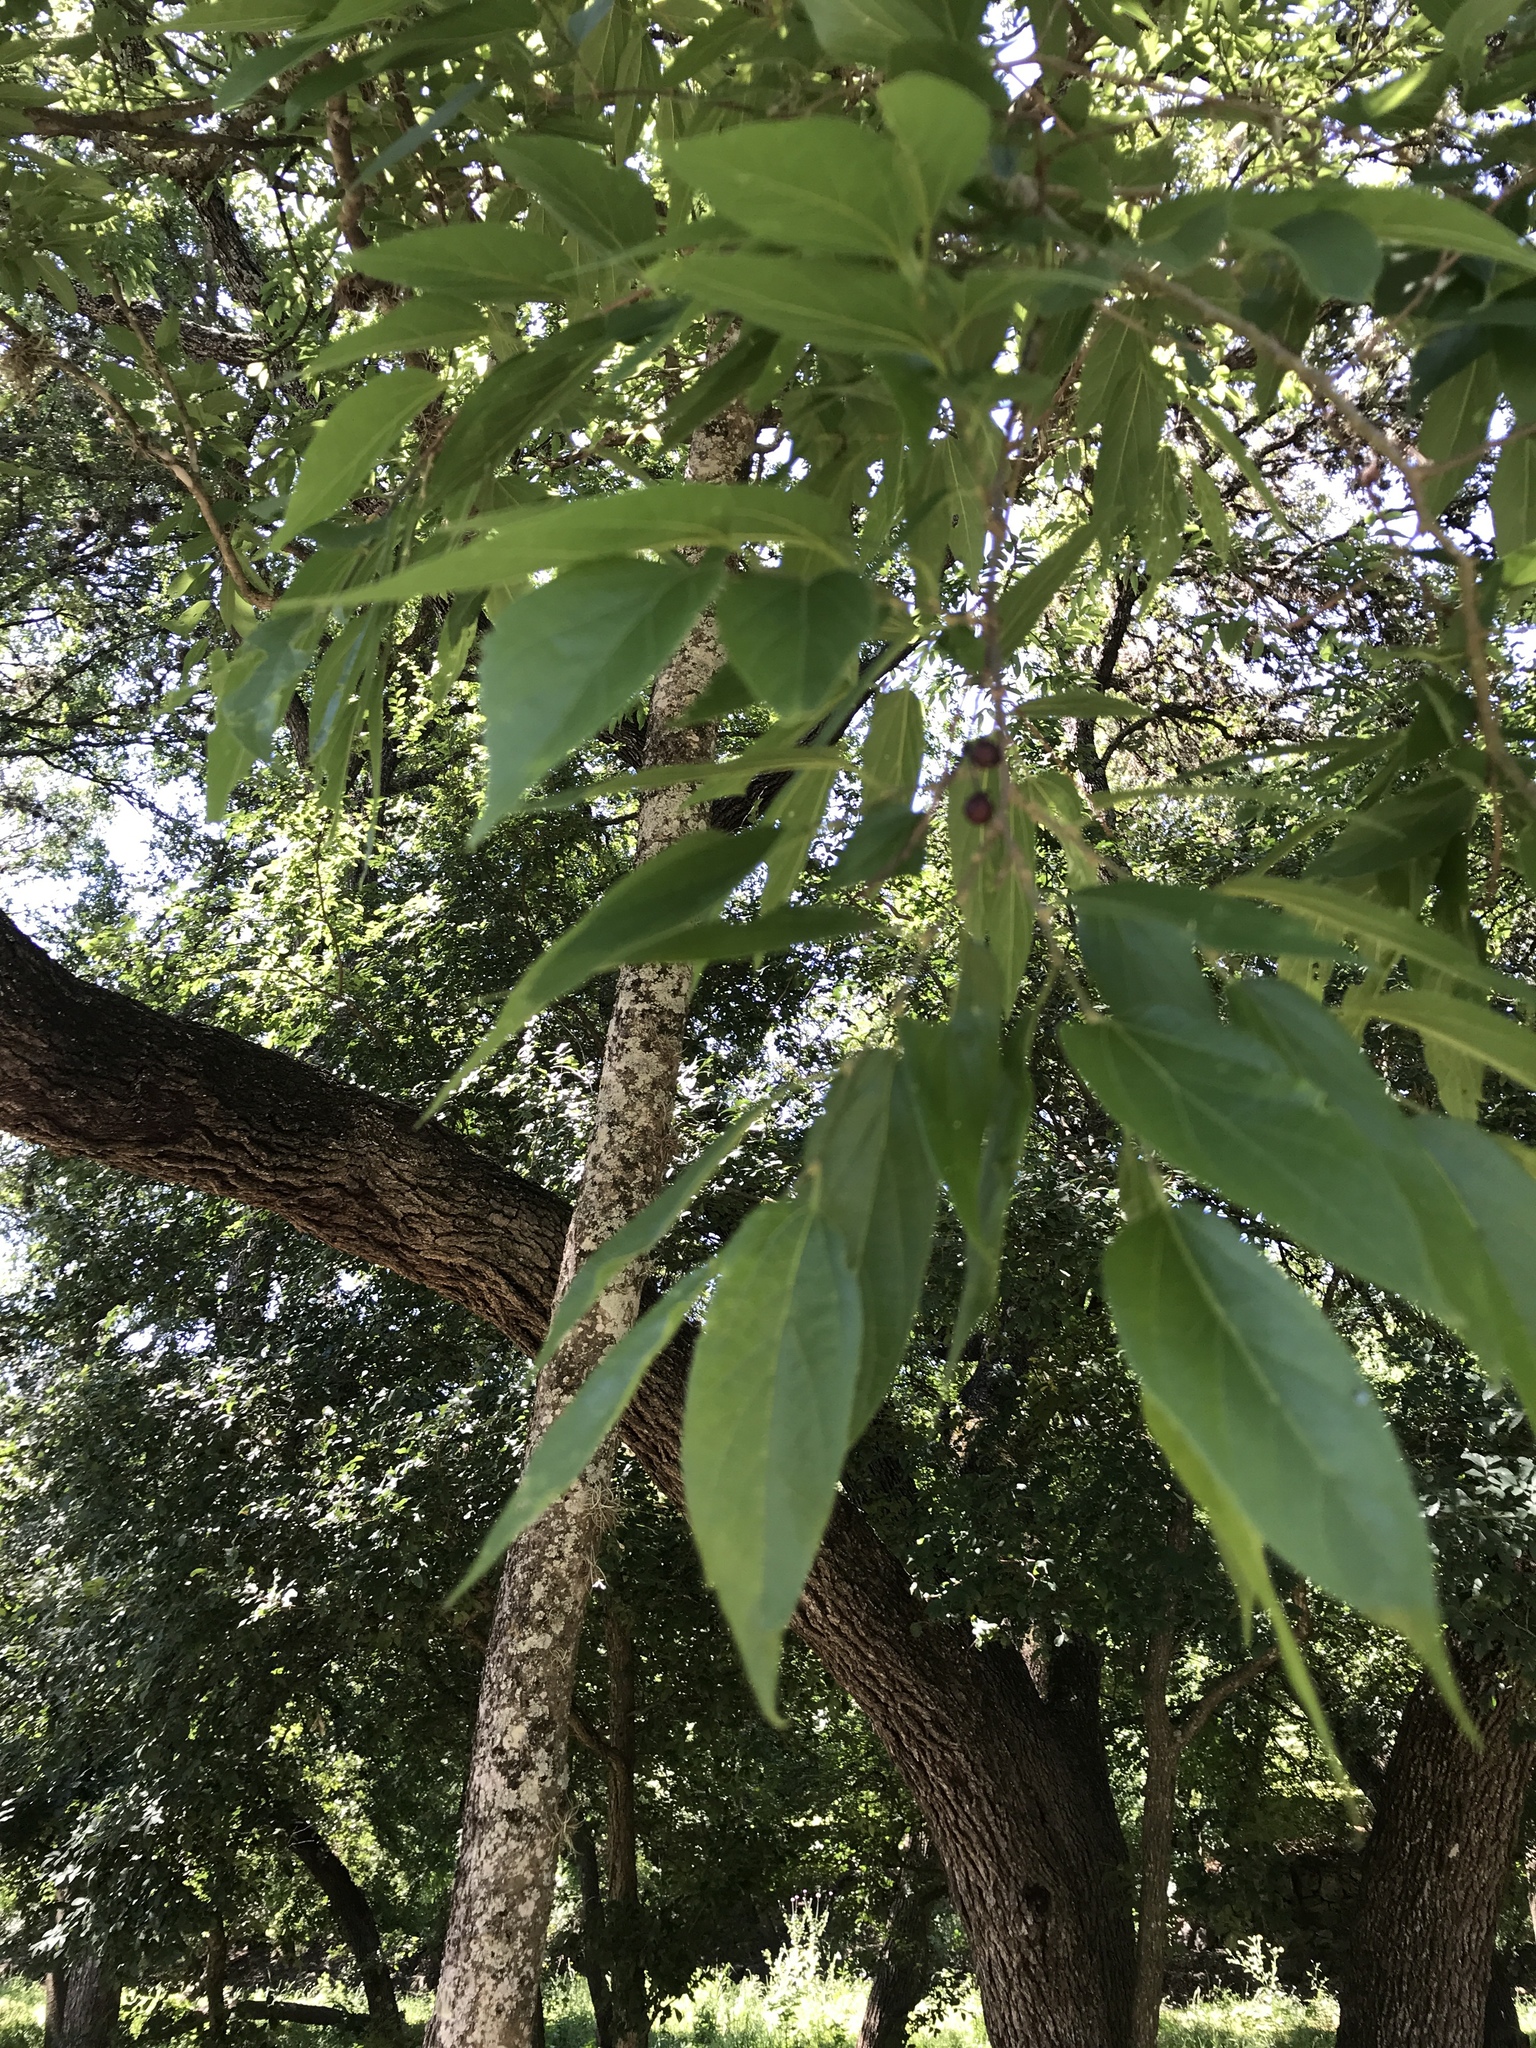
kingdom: Plantae
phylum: Tracheophyta
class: Magnoliopsida
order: Rosales
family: Cannabaceae
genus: Celtis
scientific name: Celtis laevigata
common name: Sugarberry
